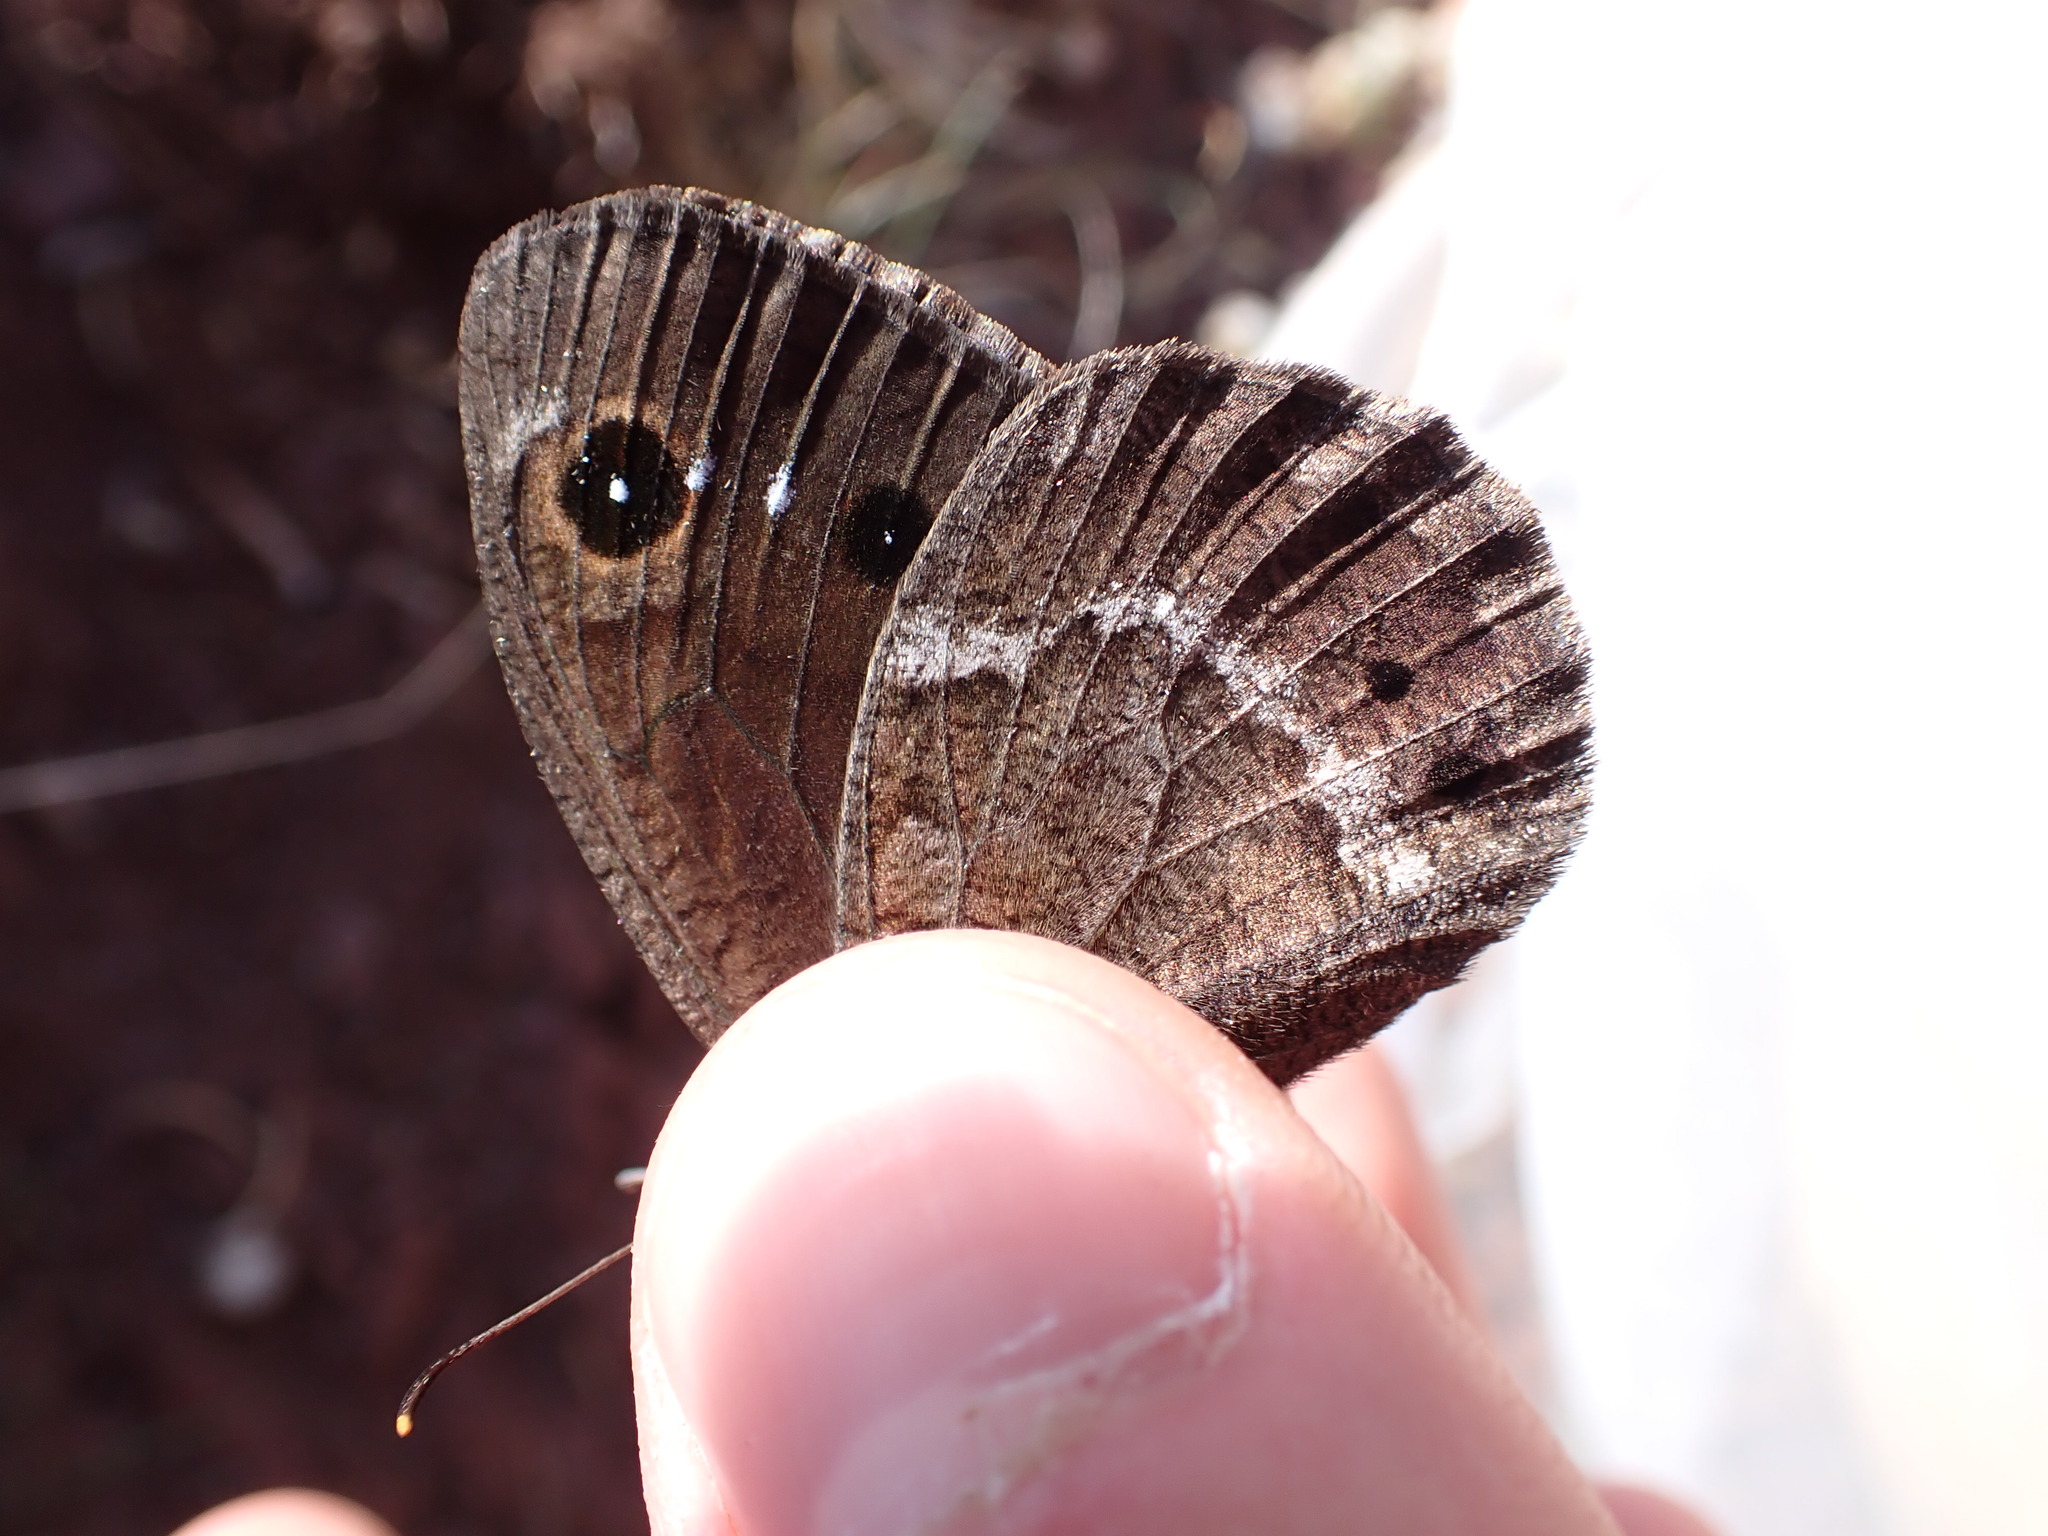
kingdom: Animalia
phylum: Arthropoda
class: Insecta
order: Lepidoptera
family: Nymphalidae
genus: Satyrus
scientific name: Satyrus ferula
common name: Great sooty satyr
